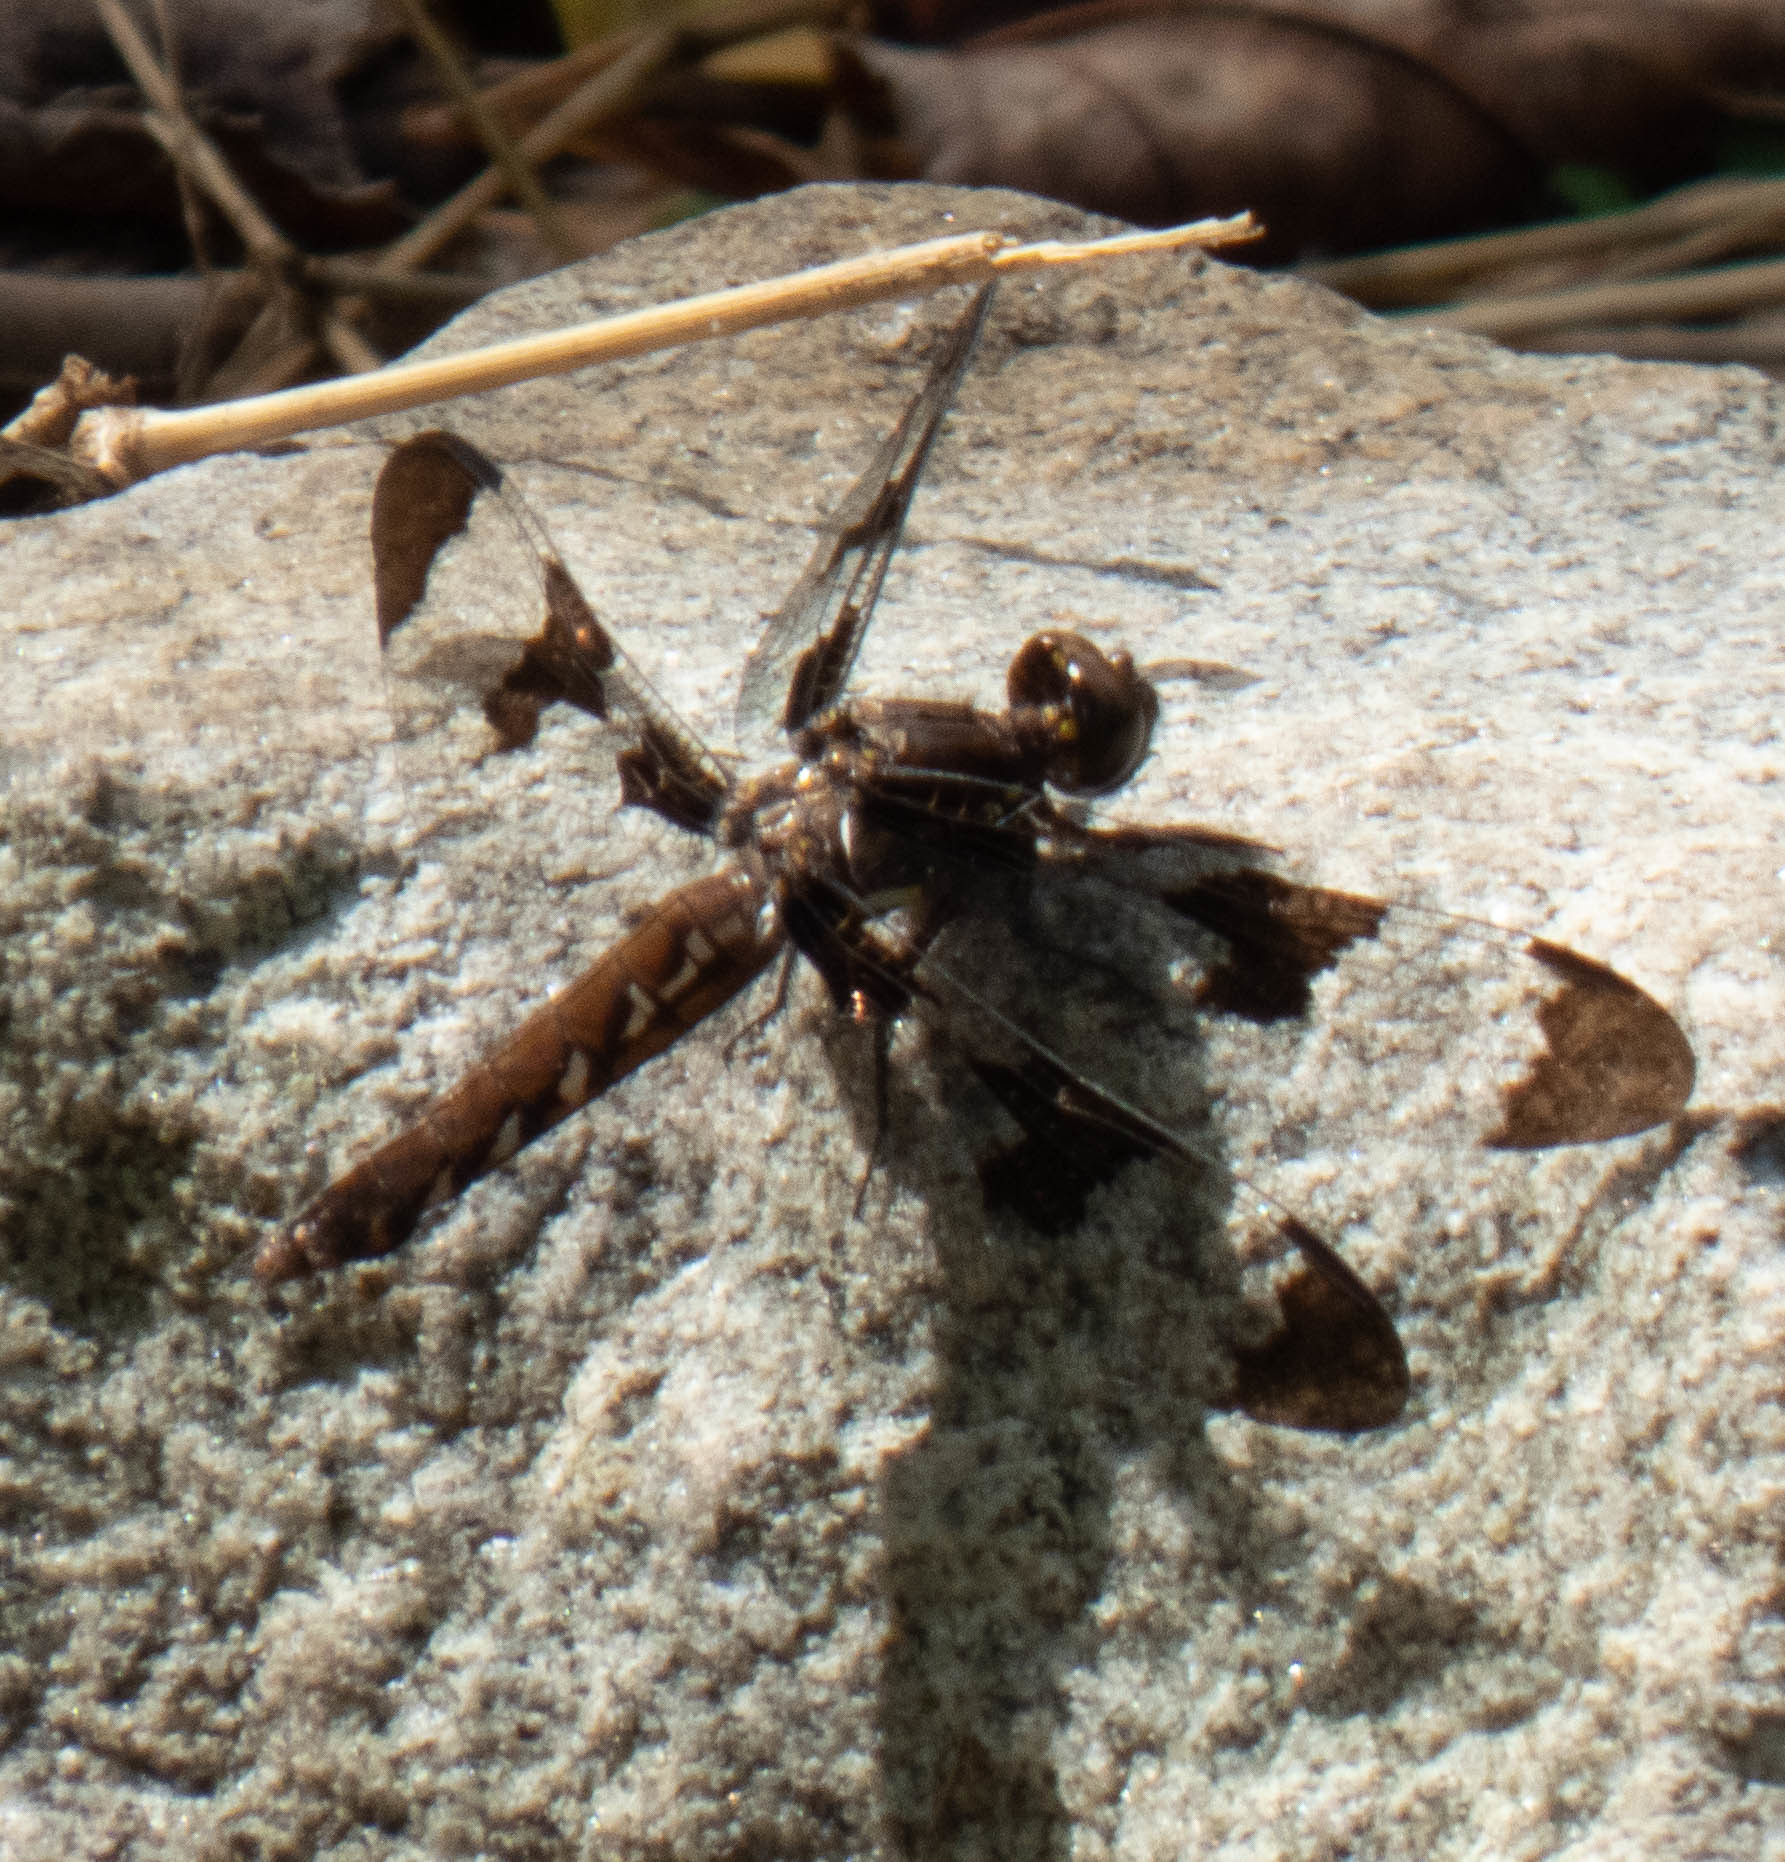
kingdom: Animalia
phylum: Arthropoda
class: Insecta
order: Odonata
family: Libellulidae
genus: Plathemis
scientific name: Plathemis lydia
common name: Common whitetail
